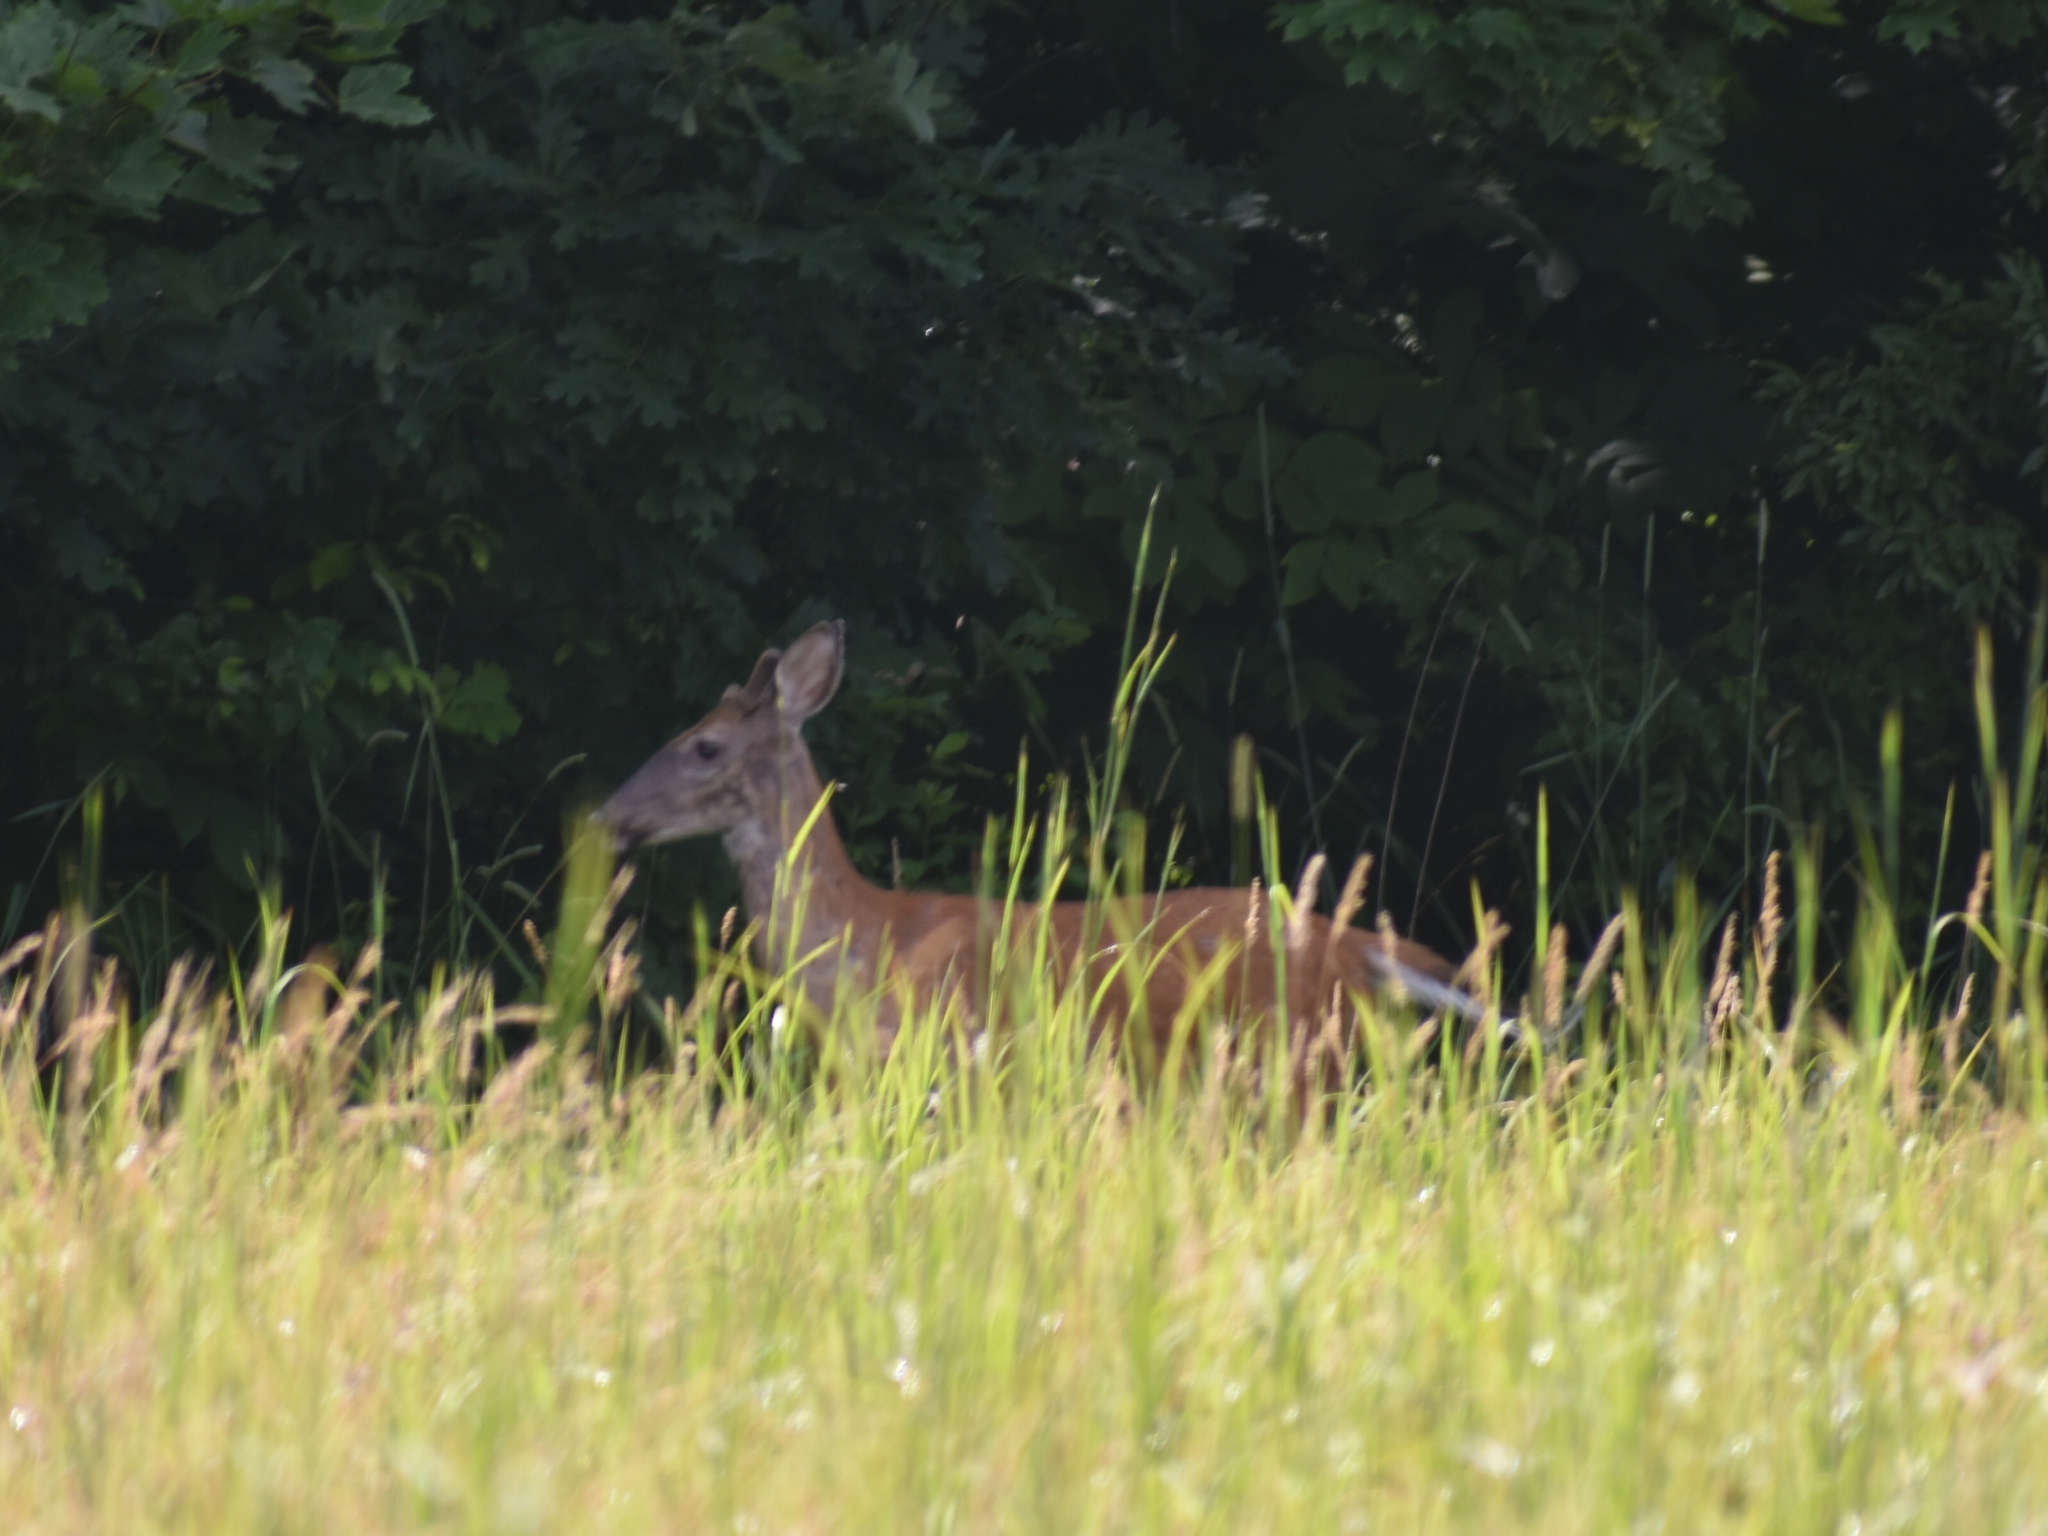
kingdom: Animalia
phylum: Chordata
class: Mammalia
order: Artiodactyla
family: Cervidae
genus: Odocoileus
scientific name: Odocoileus virginianus
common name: White-tailed deer
